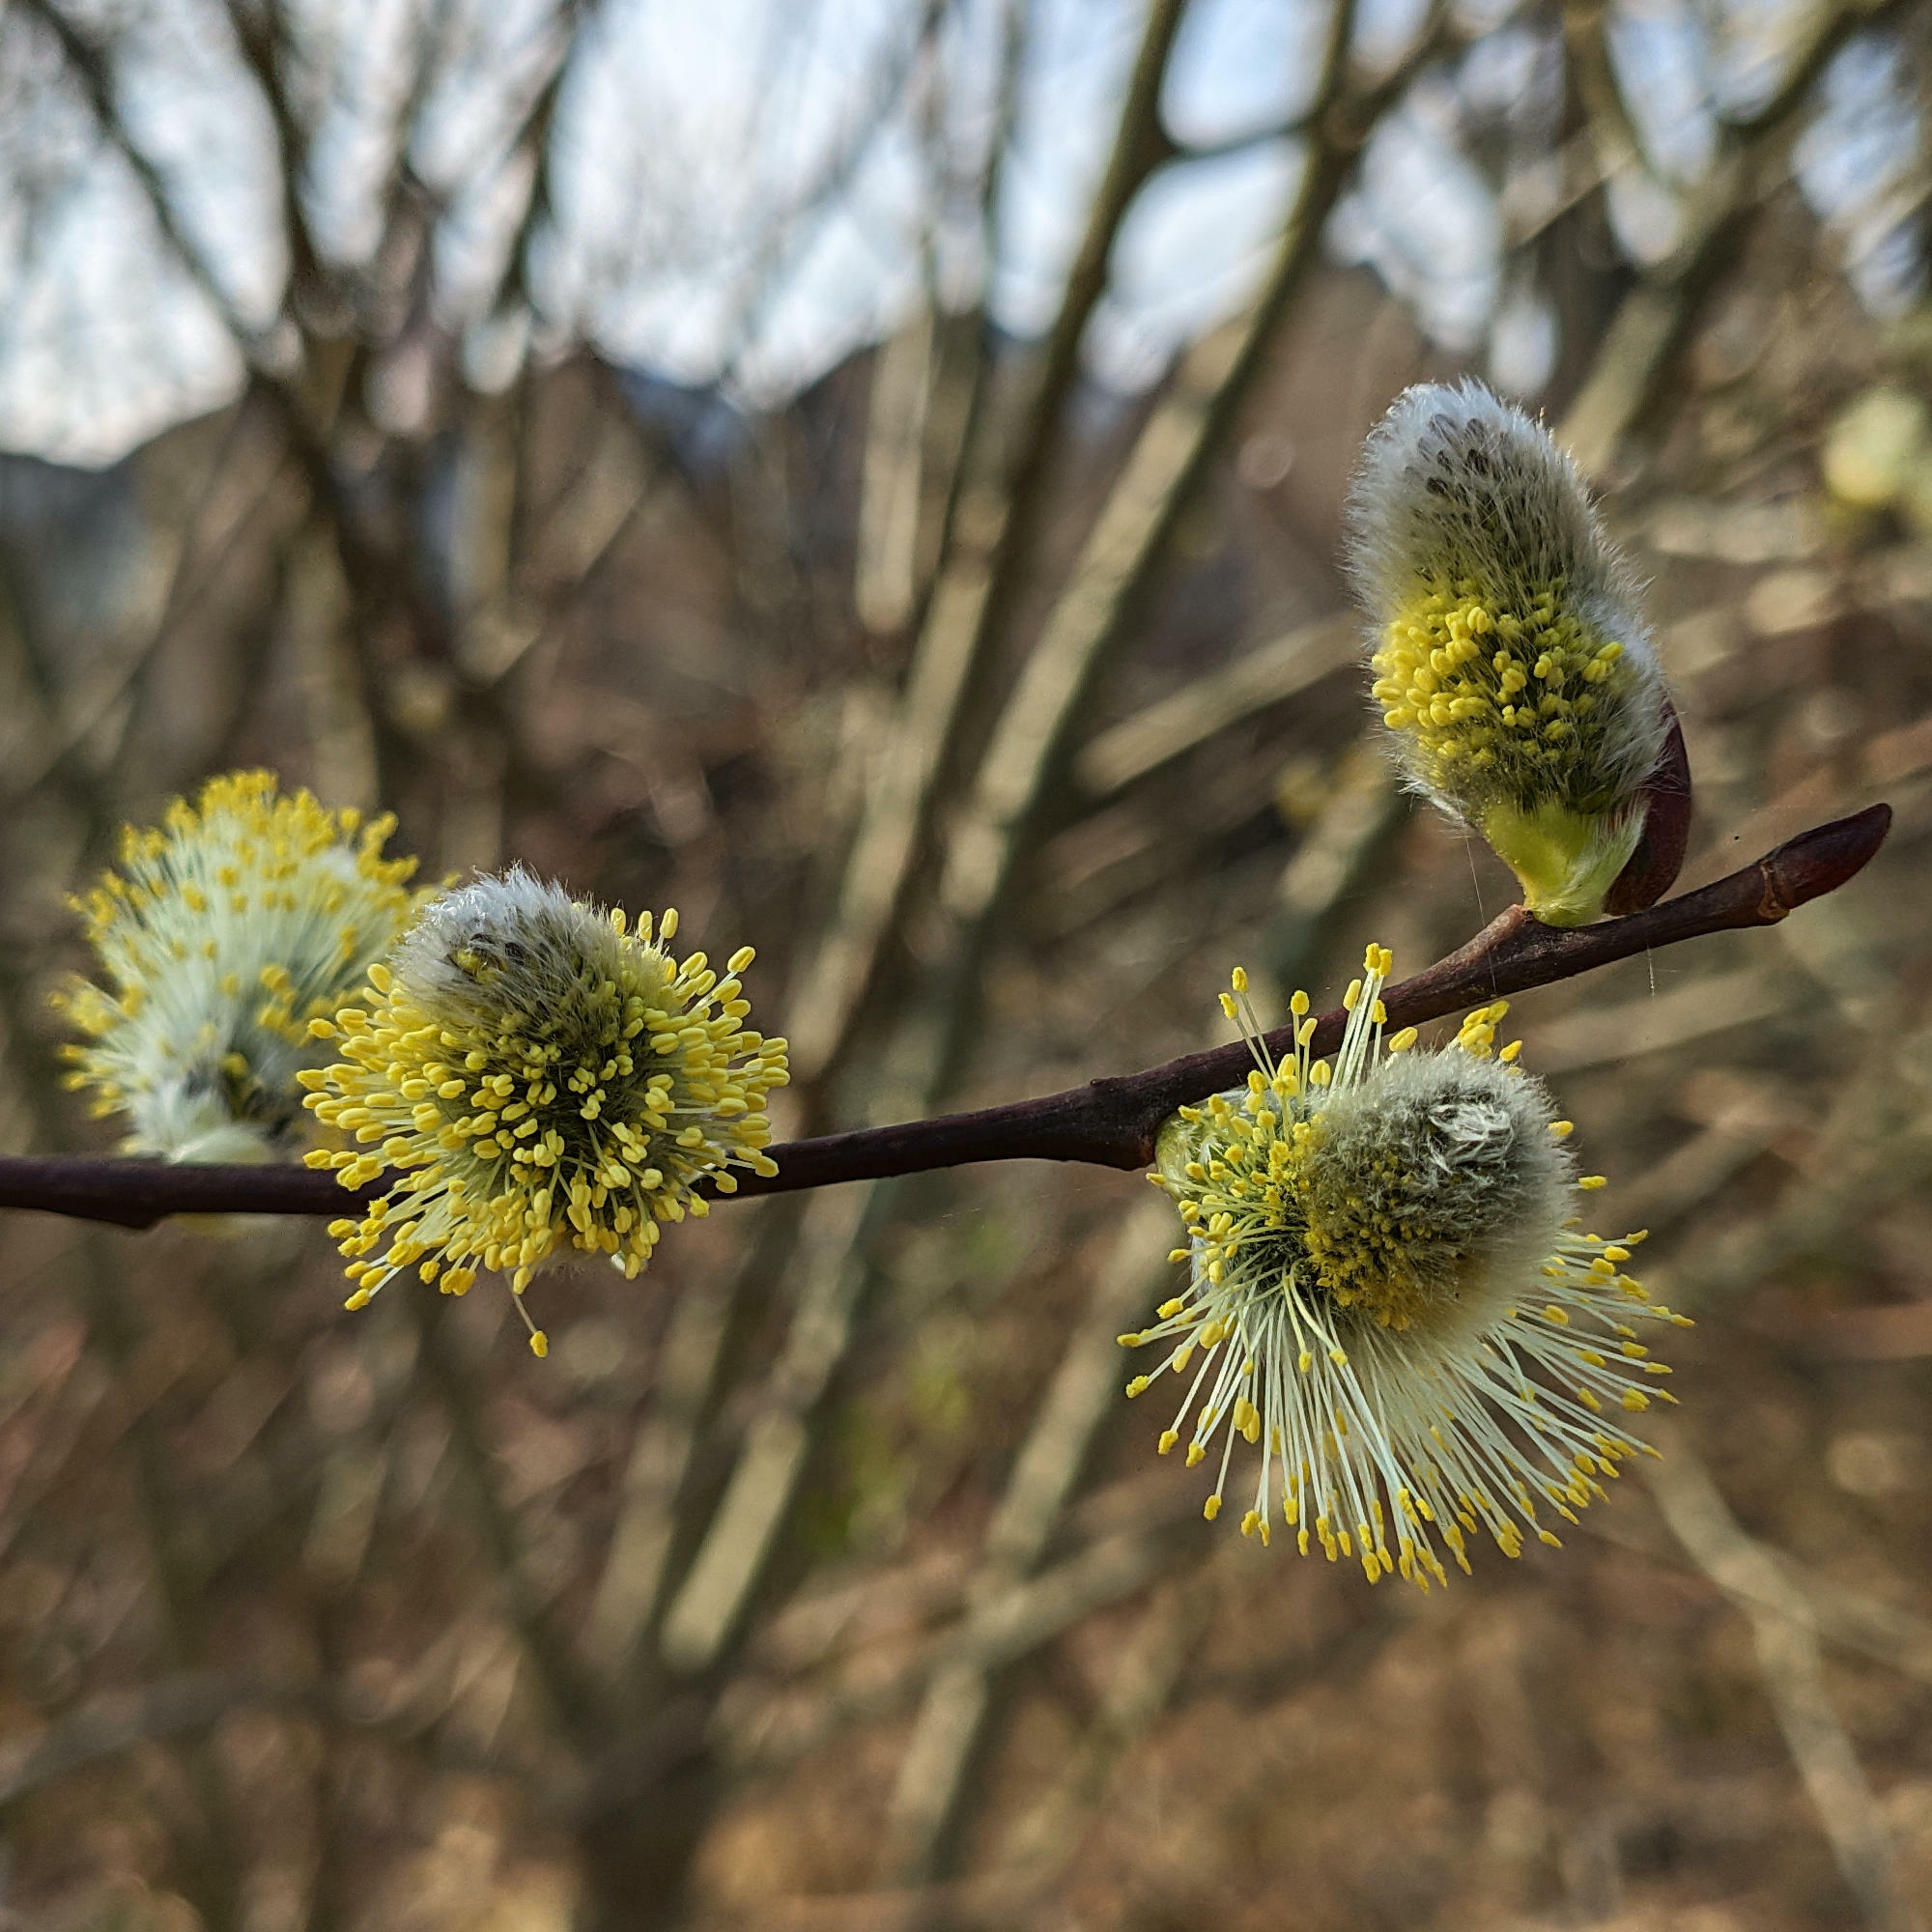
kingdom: Plantae
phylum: Tracheophyta
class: Magnoliopsida
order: Malpighiales
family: Salicaceae
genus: Salix
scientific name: Salix caprea
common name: Goat willow
